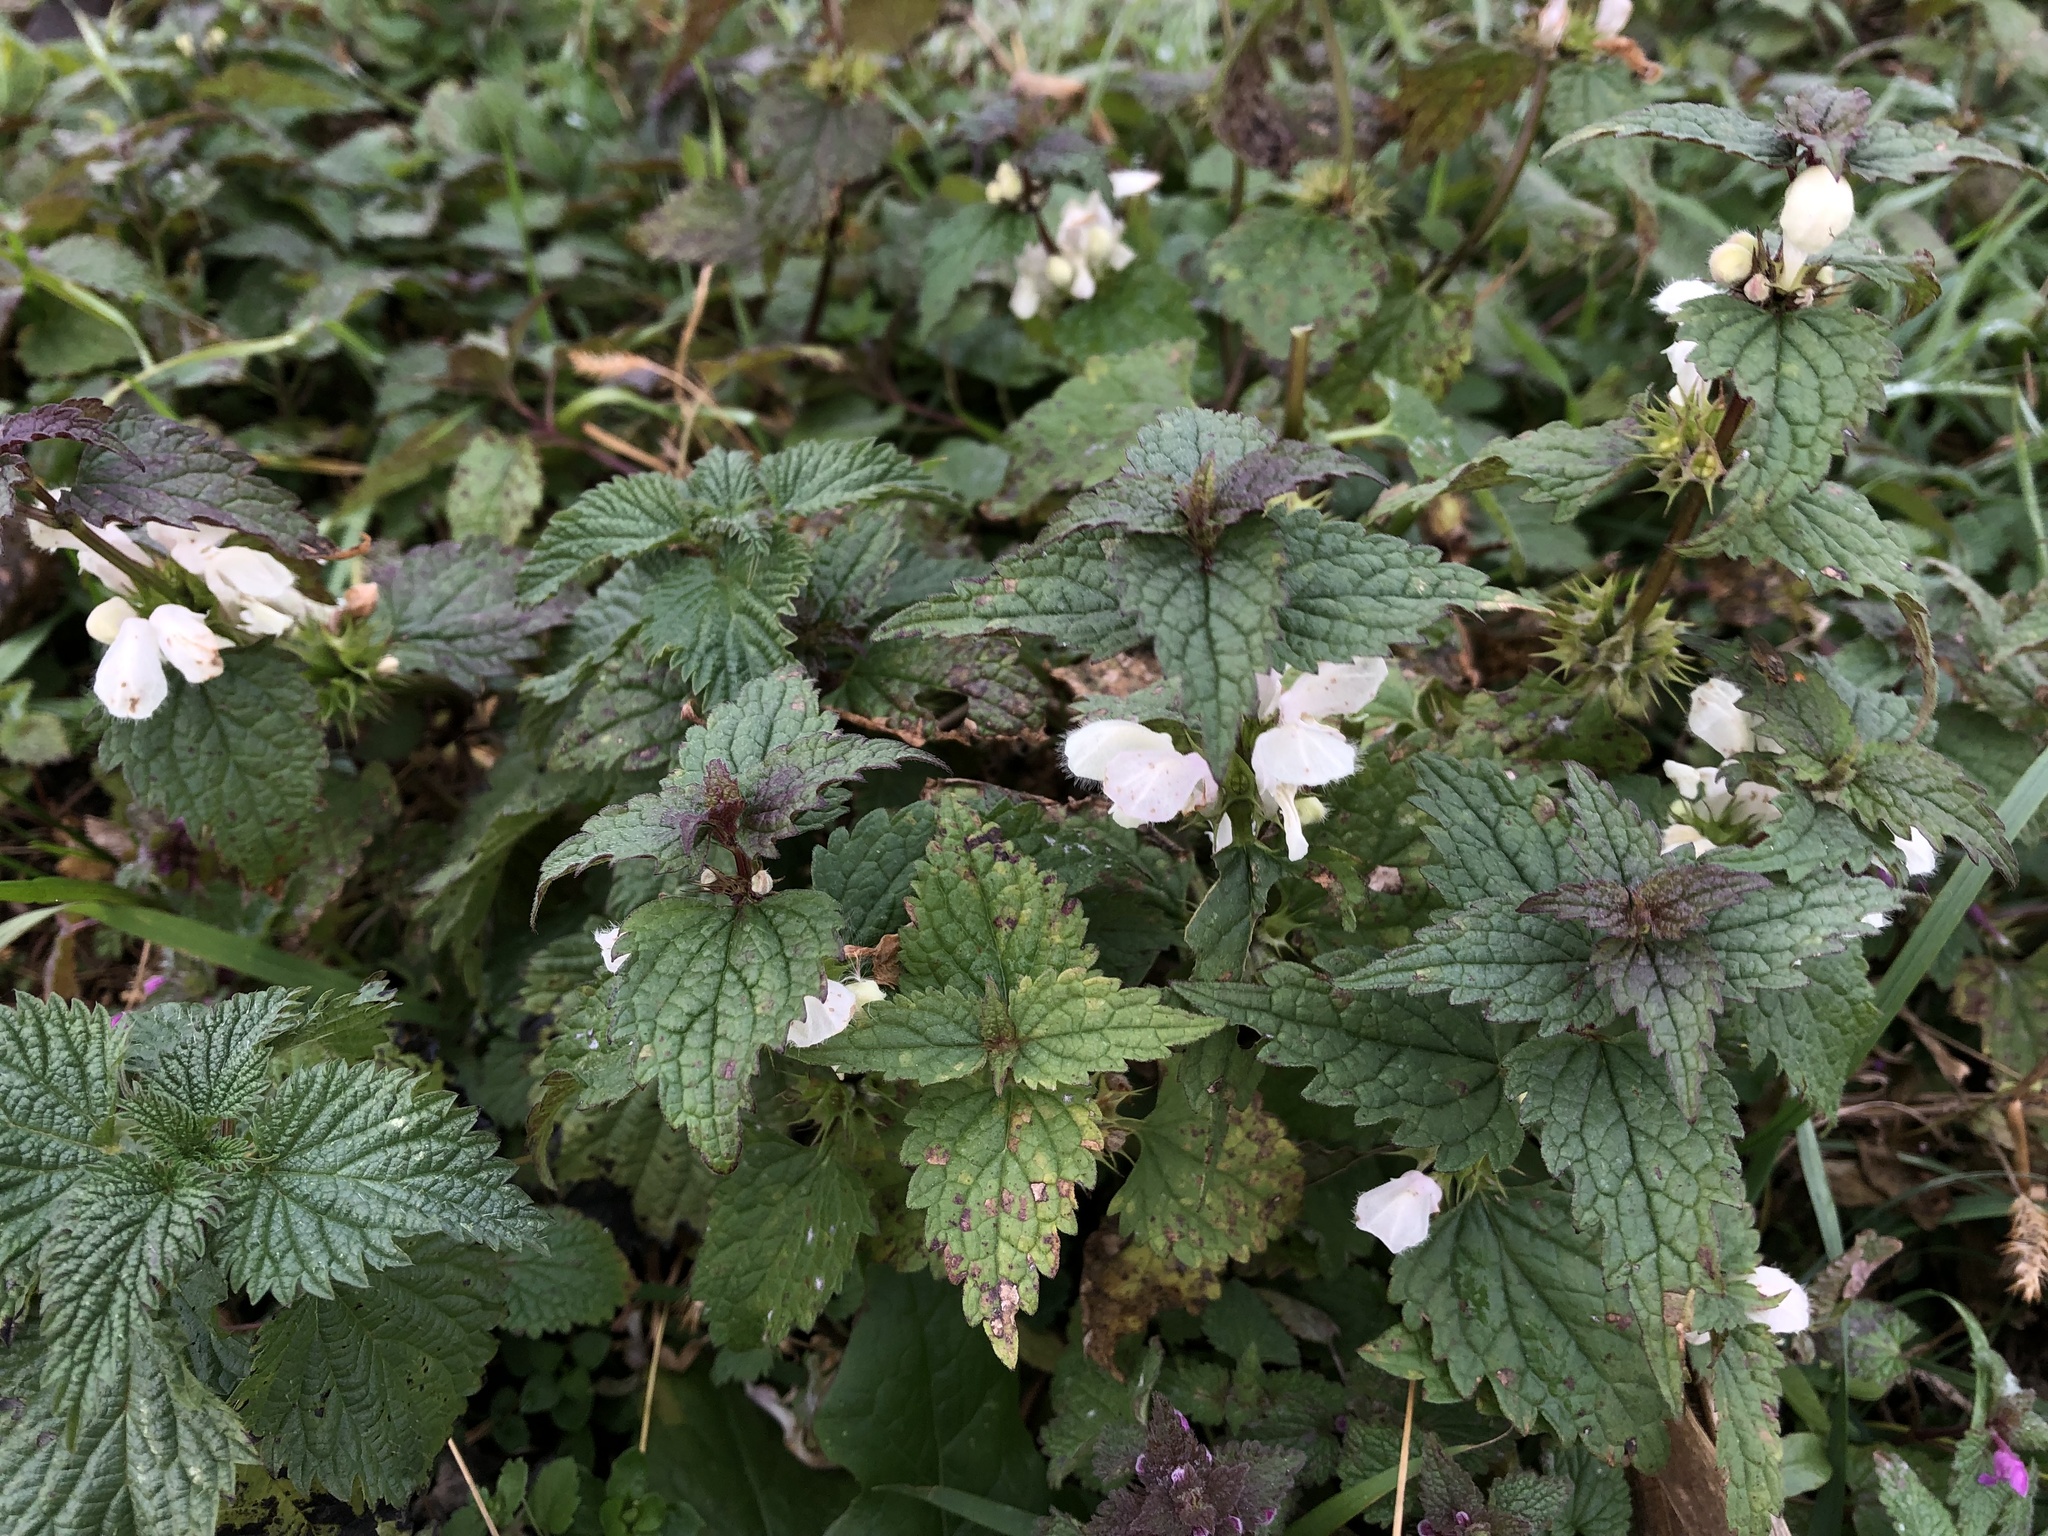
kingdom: Plantae
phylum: Tracheophyta
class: Magnoliopsida
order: Lamiales
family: Lamiaceae
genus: Lamium
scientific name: Lamium album
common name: White dead-nettle
